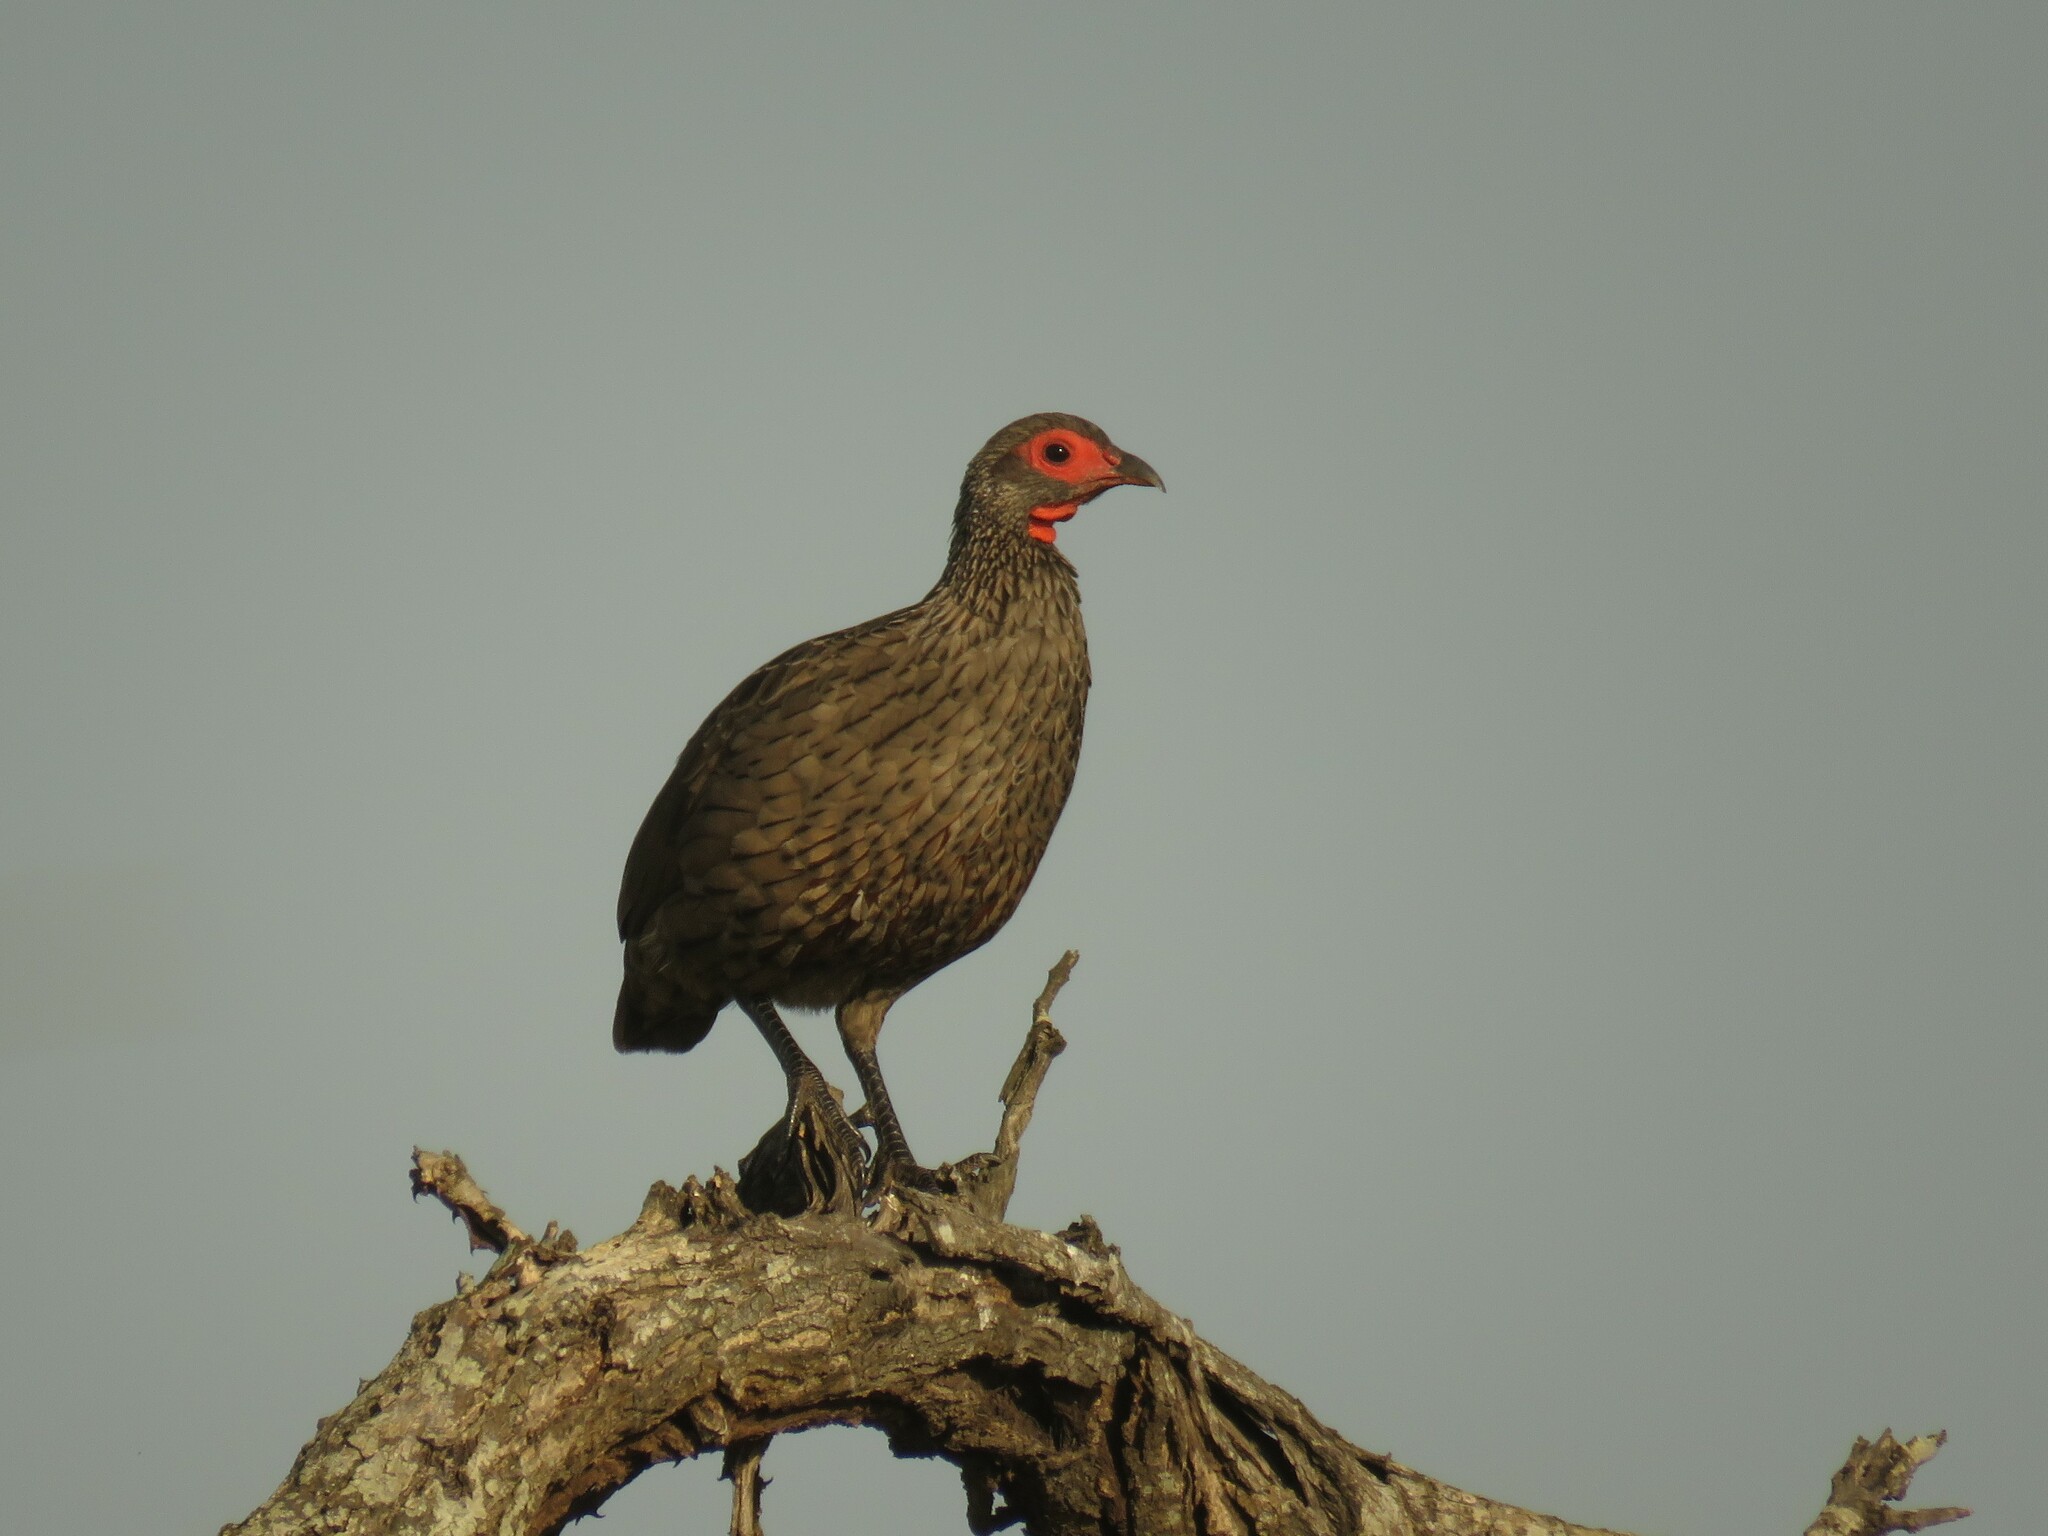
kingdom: Animalia
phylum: Chordata
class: Aves
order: Galliformes
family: Phasianidae
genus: Pternistis
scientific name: Pternistis swainsonii
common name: Swainson's spurfowl
